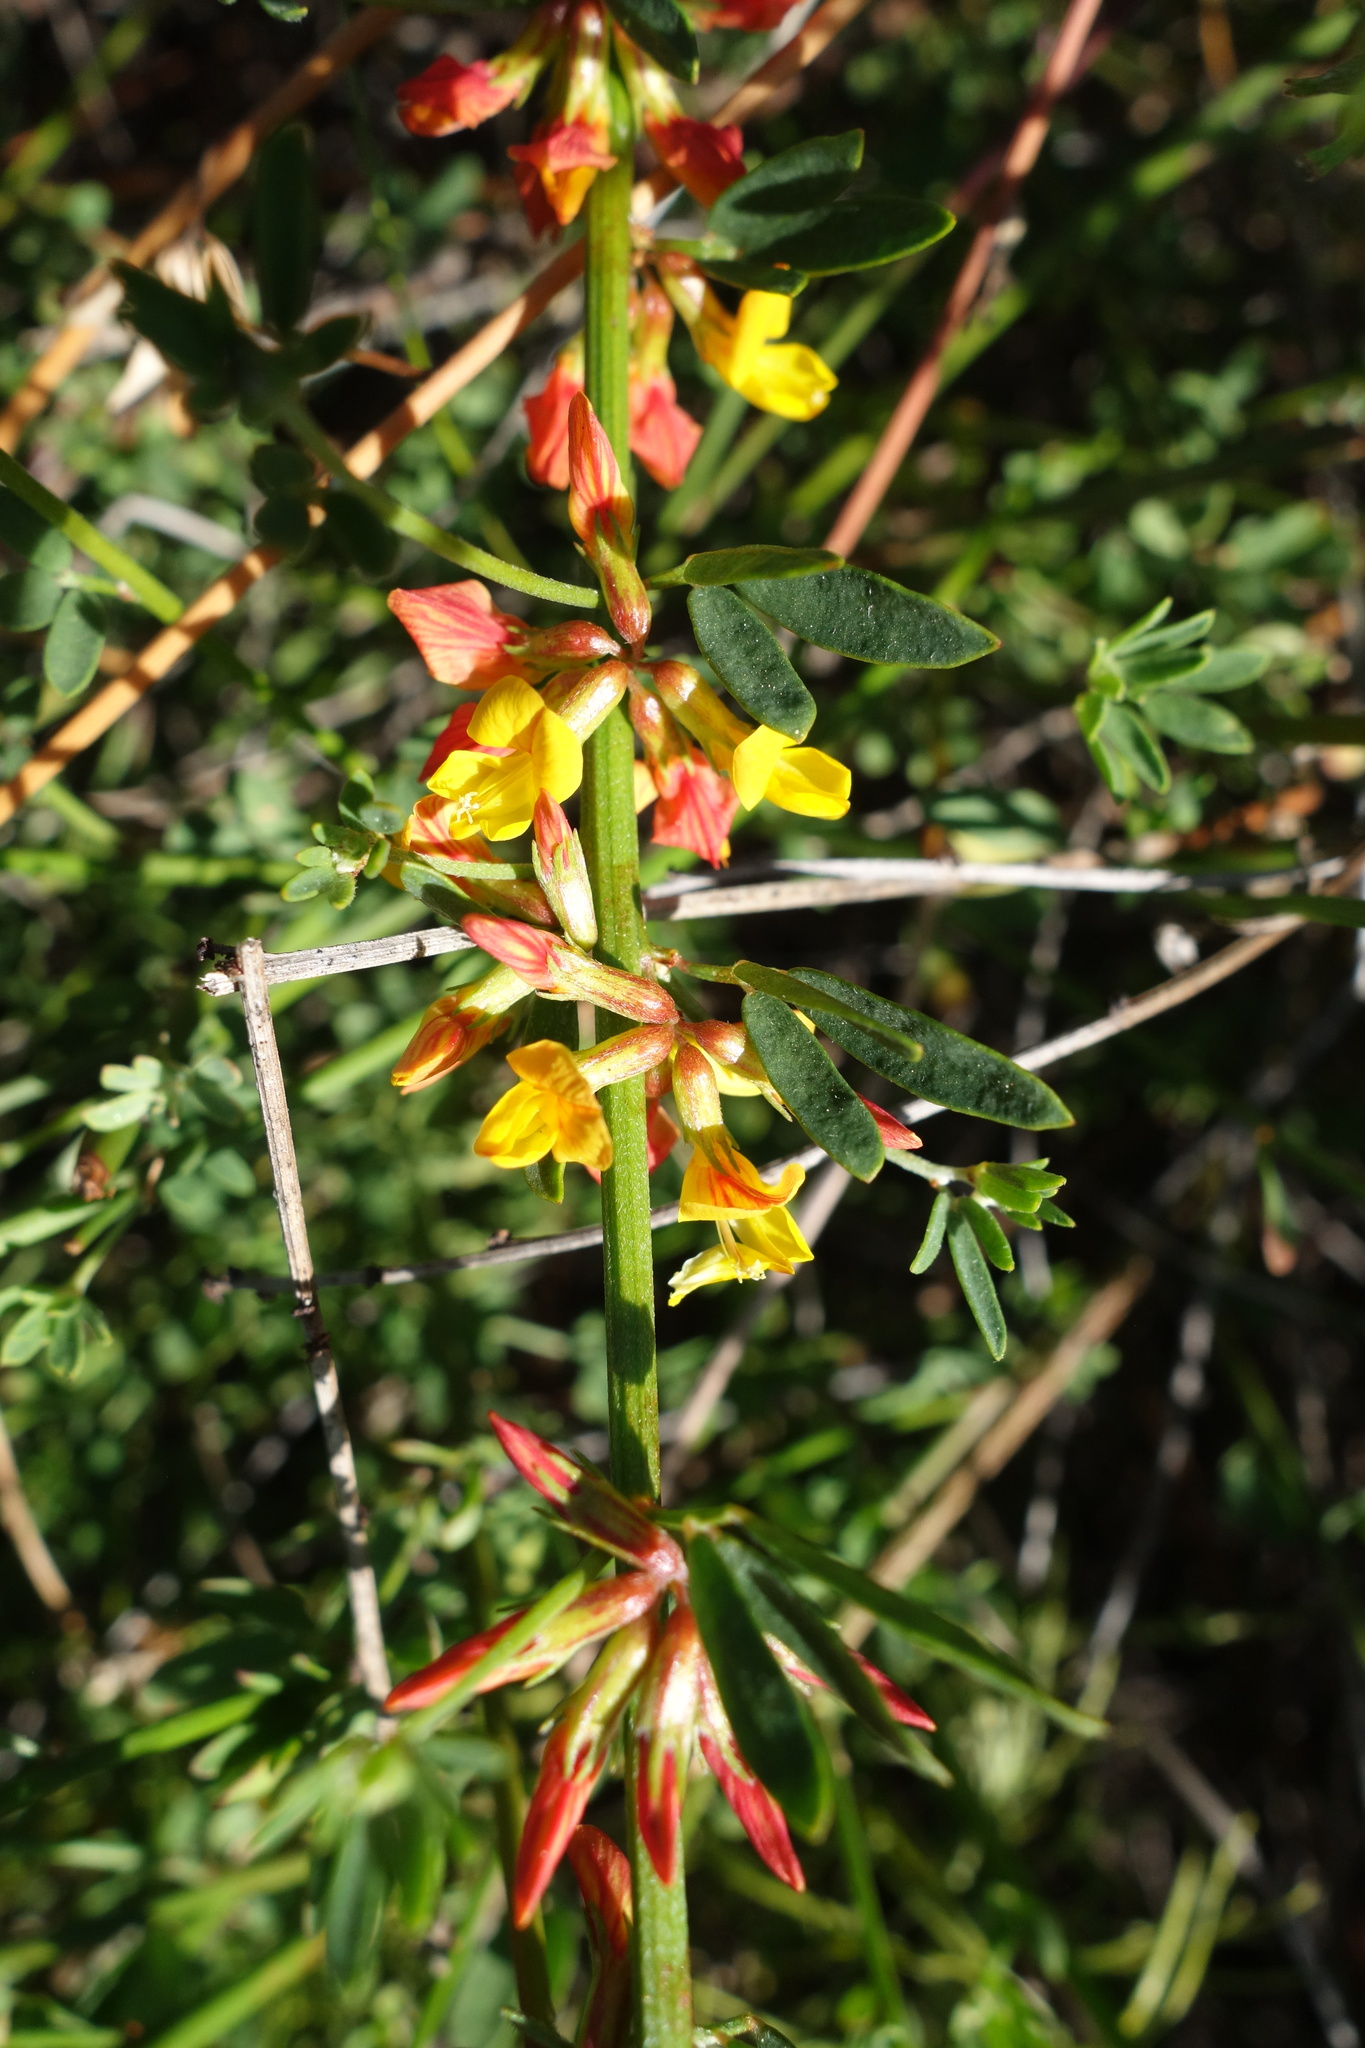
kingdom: Plantae
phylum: Tracheophyta
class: Magnoliopsida
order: Fabales
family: Fabaceae
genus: Acmispon
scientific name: Acmispon glaber
